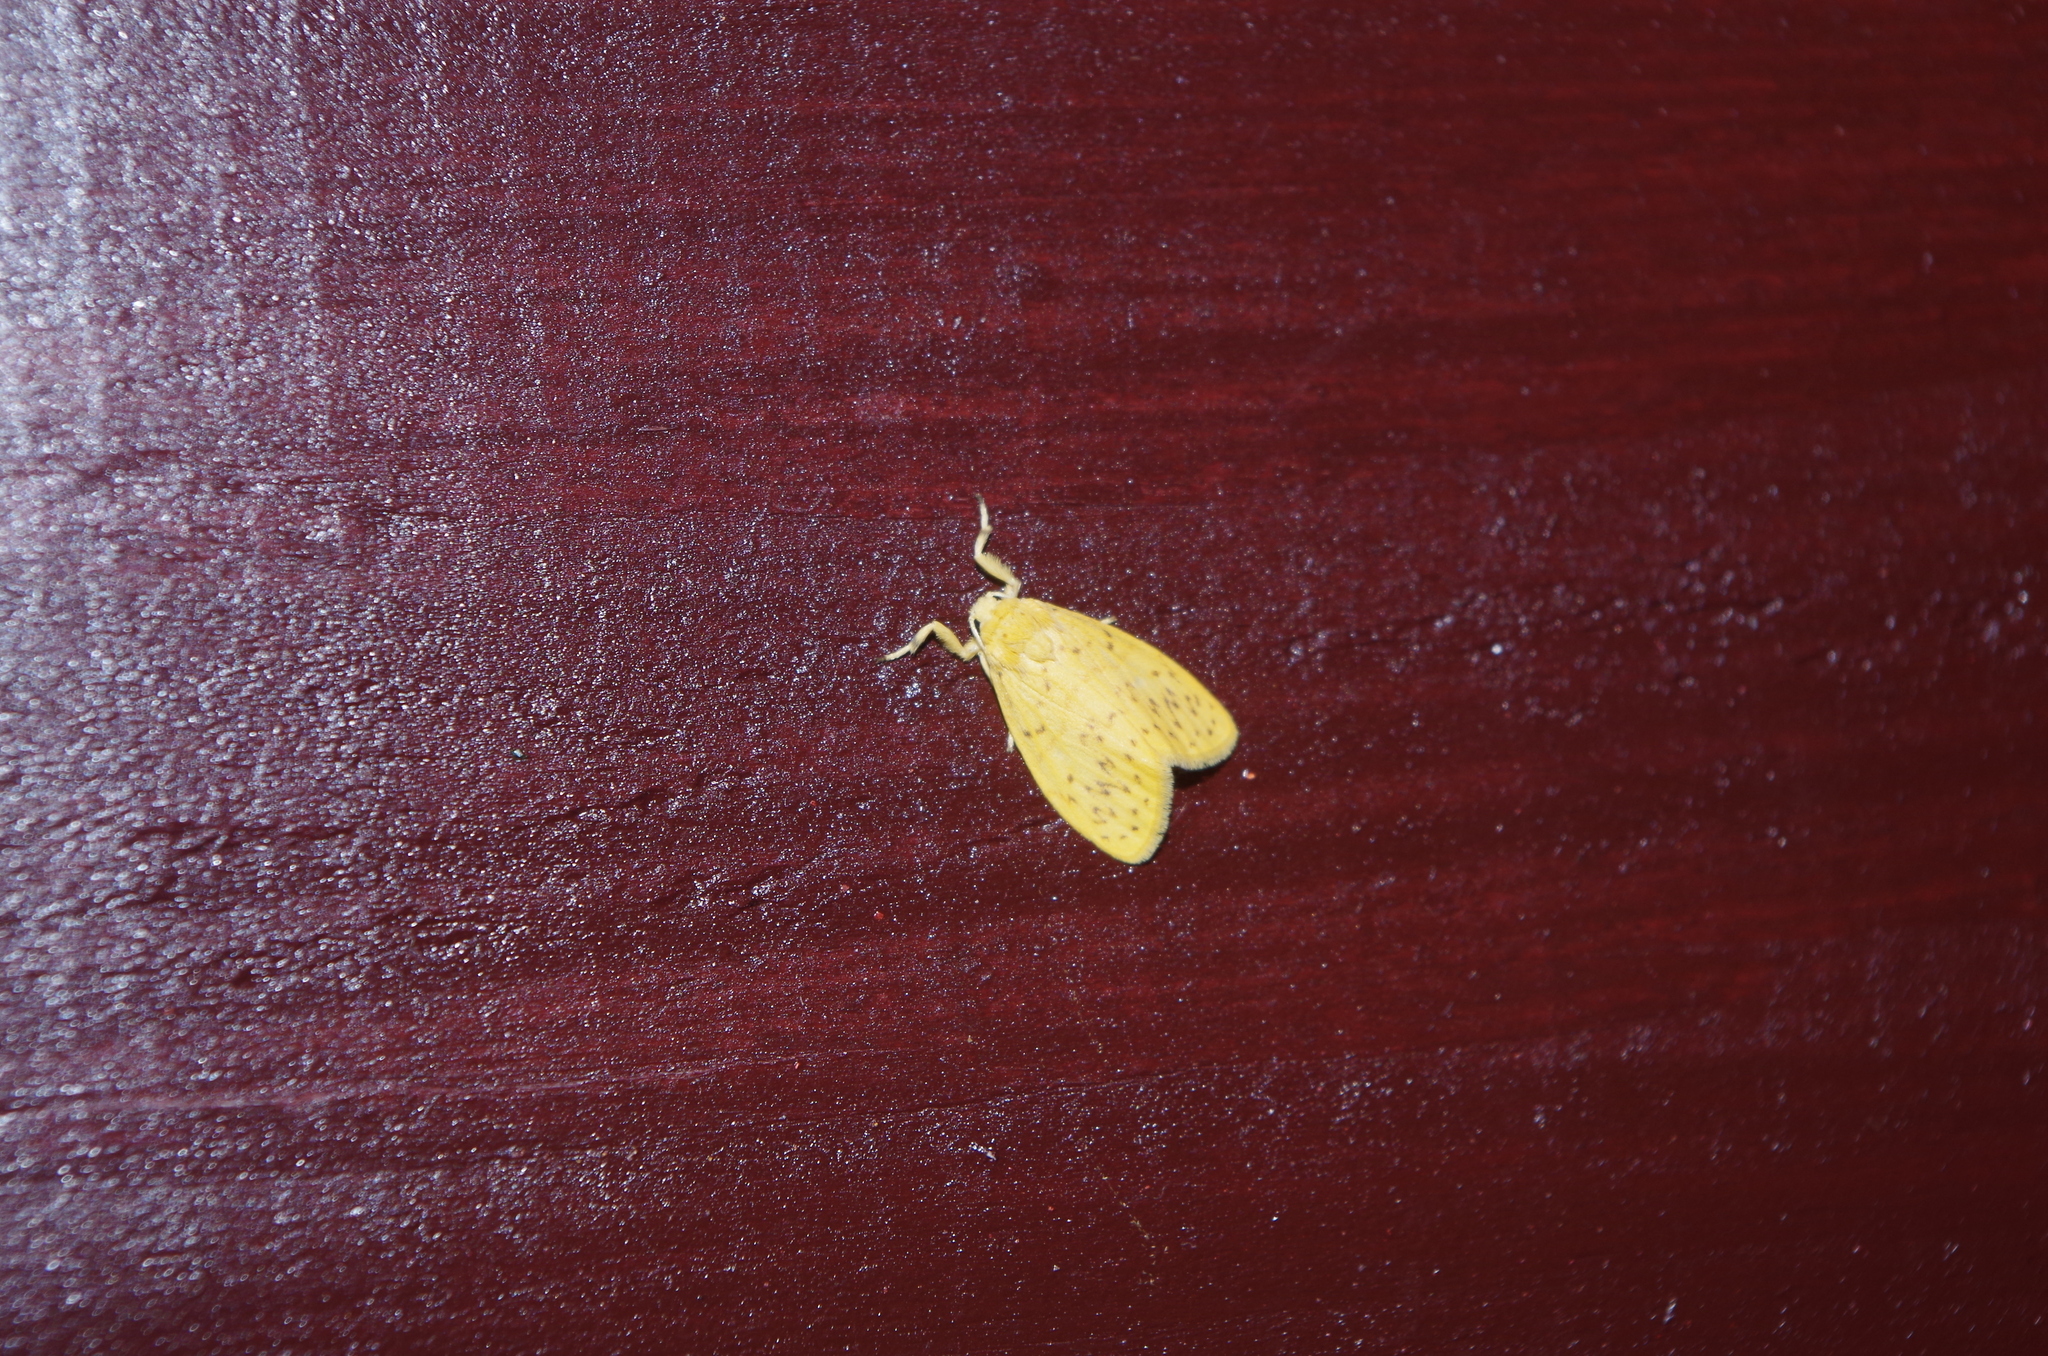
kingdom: Animalia
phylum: Arthropoda
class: Insecta
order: Lepidoptera
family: Erebidae
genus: Huangilene
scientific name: Huangilene alikangiae
